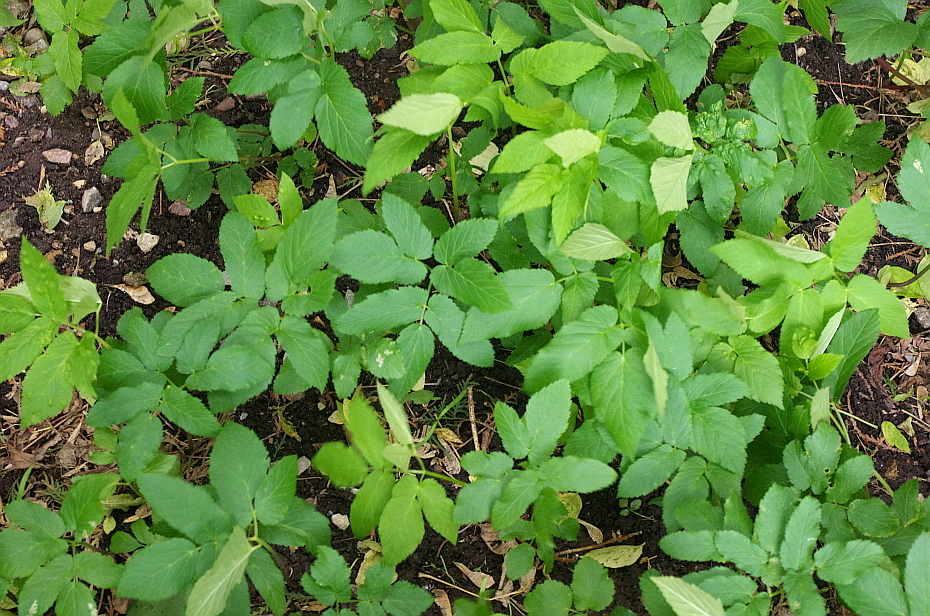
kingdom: Plantae
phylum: Tracheophyta
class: Magnoliopsida
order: Apiales
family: Apiaceae
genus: Aegopodium
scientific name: Aegopodium podagraria
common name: Ground-elder
